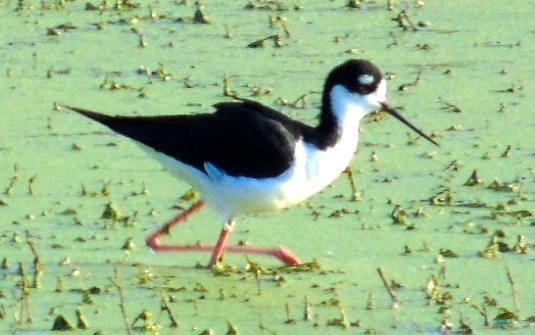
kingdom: Animalia
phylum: Chordata
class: Aves
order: Charadriiformes
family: Recurvirostridae
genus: Himantopus
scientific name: Himantopus mexicanus
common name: Black-necked stilt
